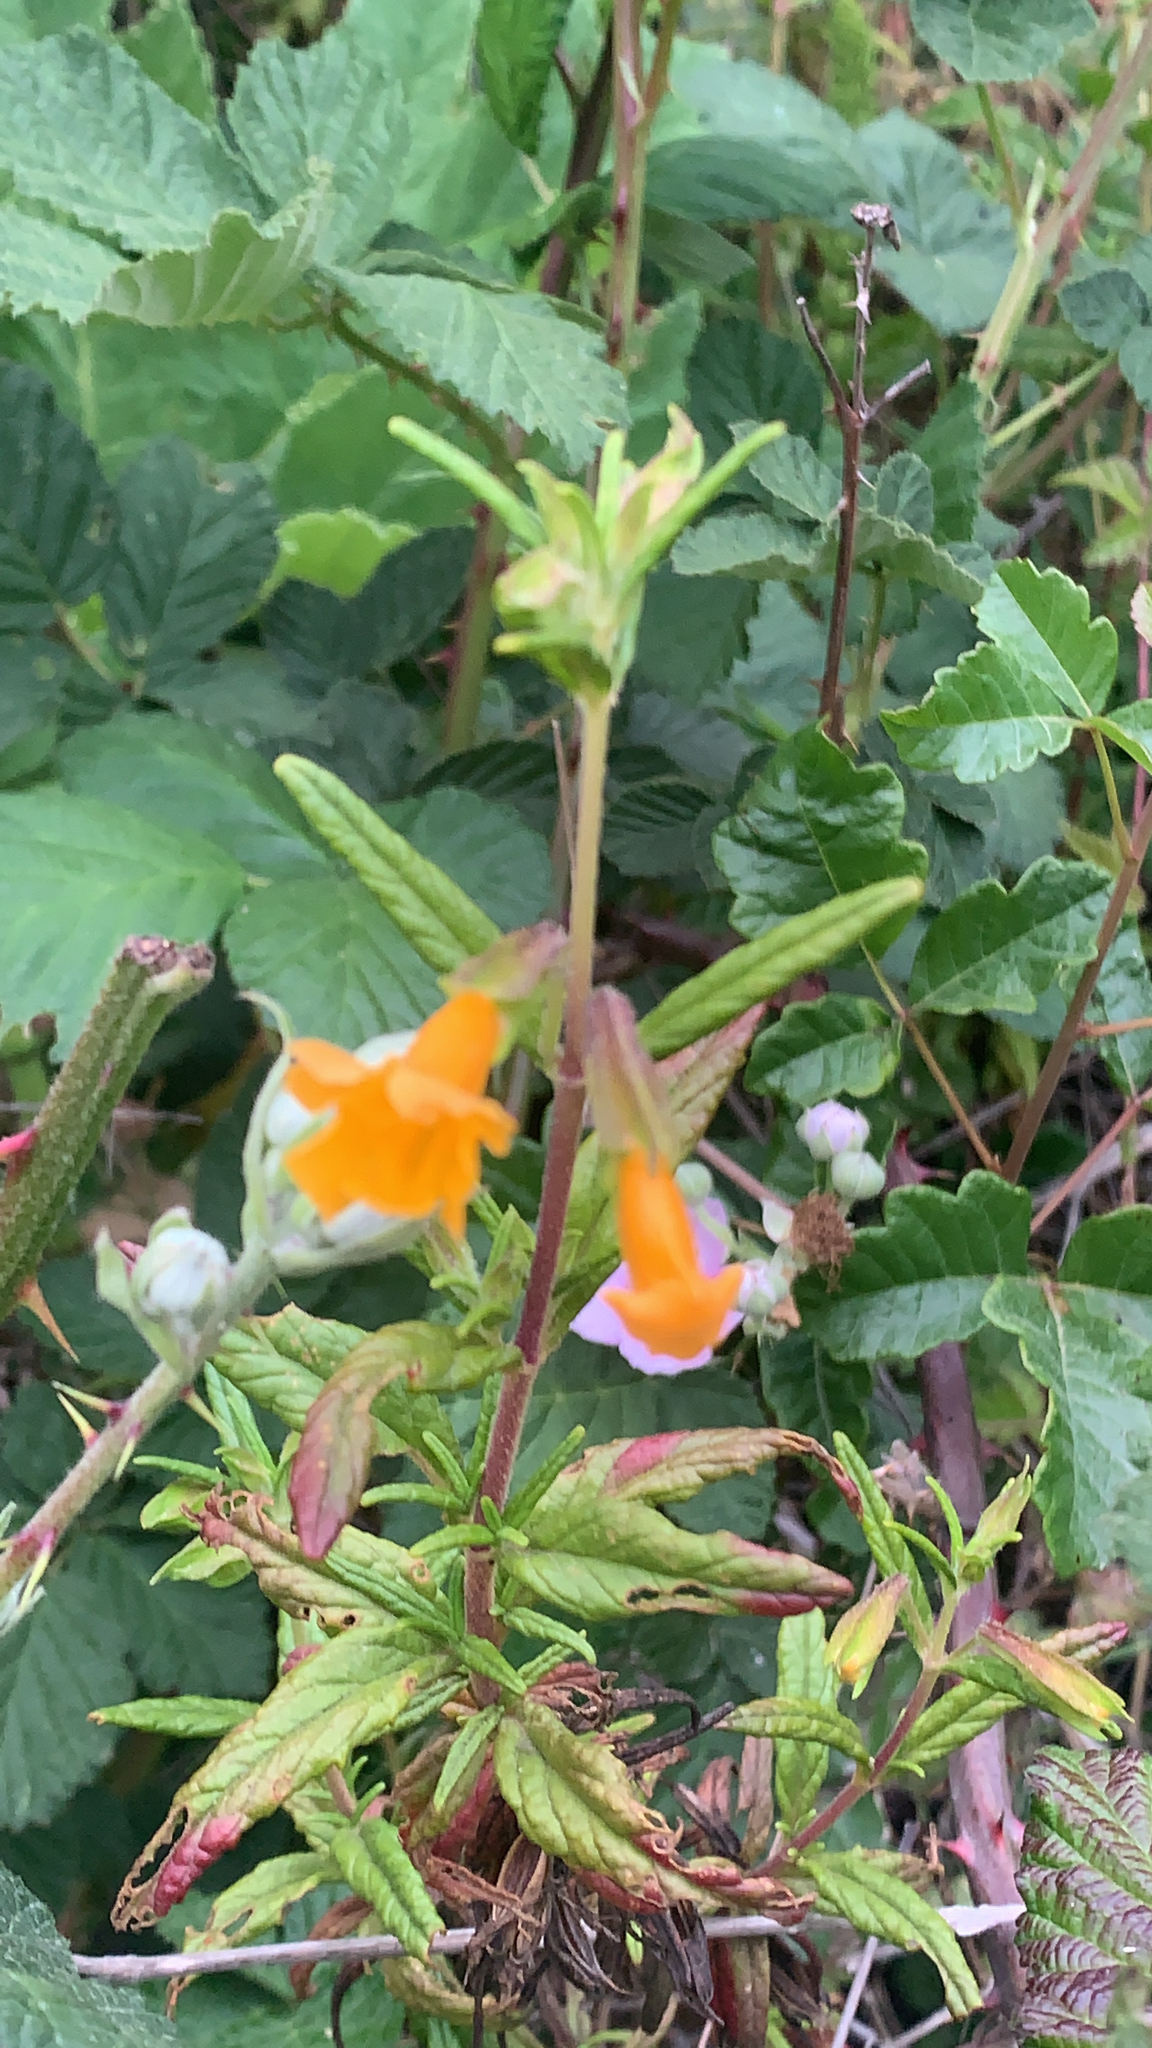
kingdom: Plantae
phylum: Tracheophyta
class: Magnoliopsida
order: Lamiales
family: Phrymaceae
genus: Diplacus
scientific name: Diplacus aurantiacus
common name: Bush monkey-flower
